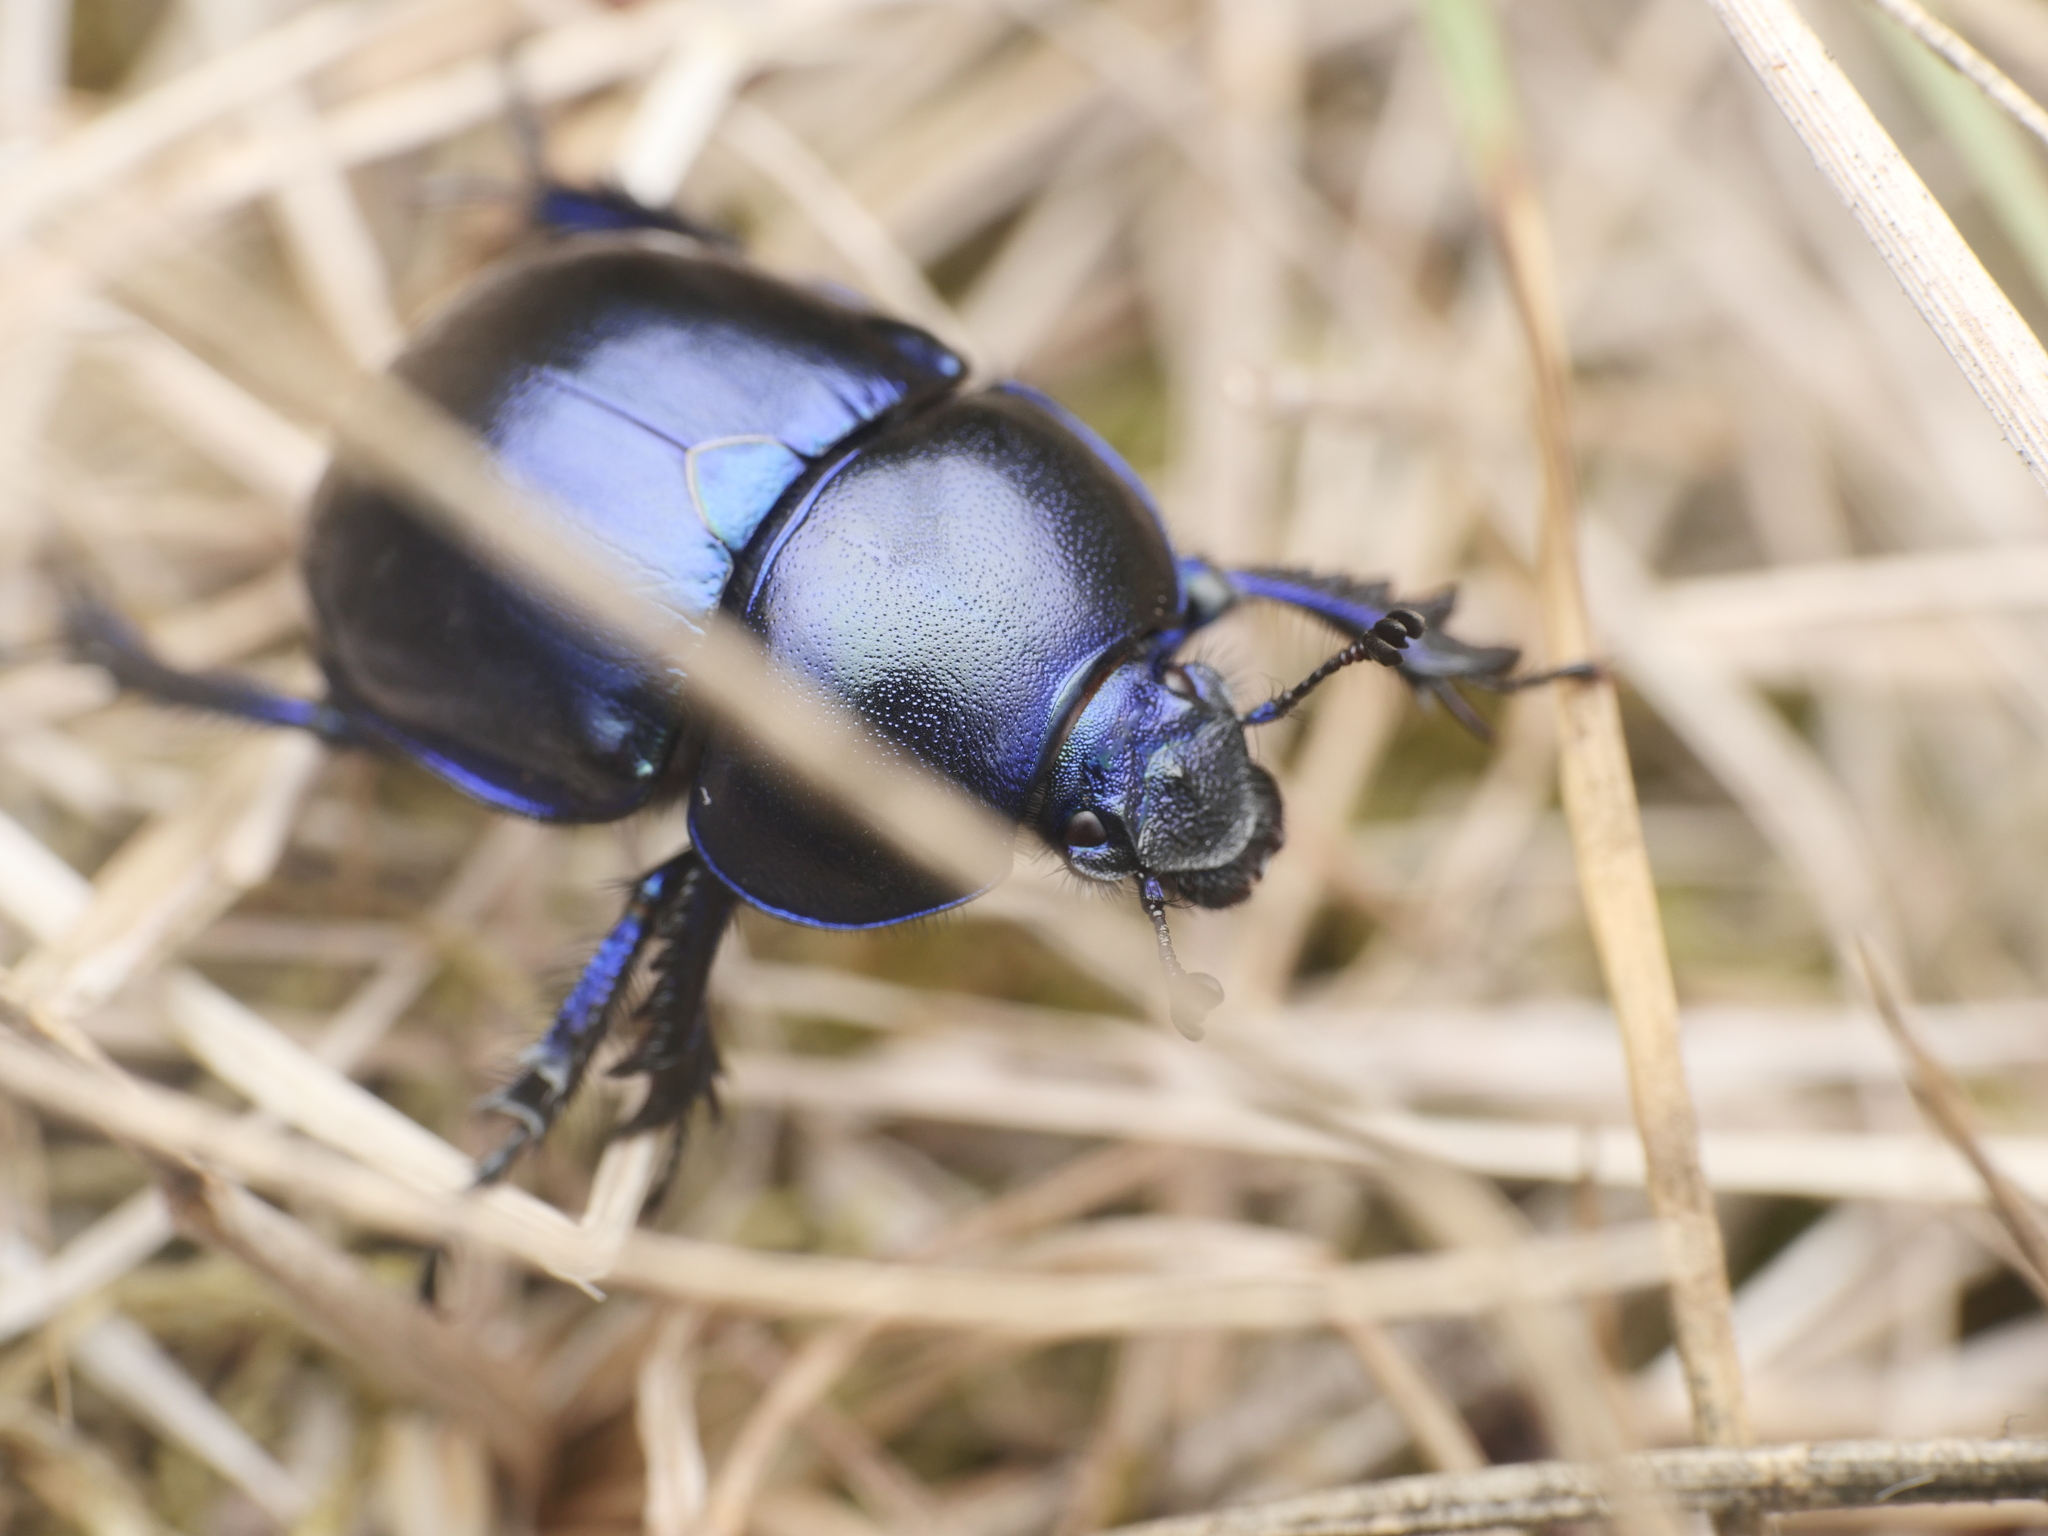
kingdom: Animalia
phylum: Arthropoda
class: Insecta
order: Coleoptera
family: Geotrupidae
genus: Trypocopris
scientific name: Trypocopris vernalis
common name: Spring dumbledor
